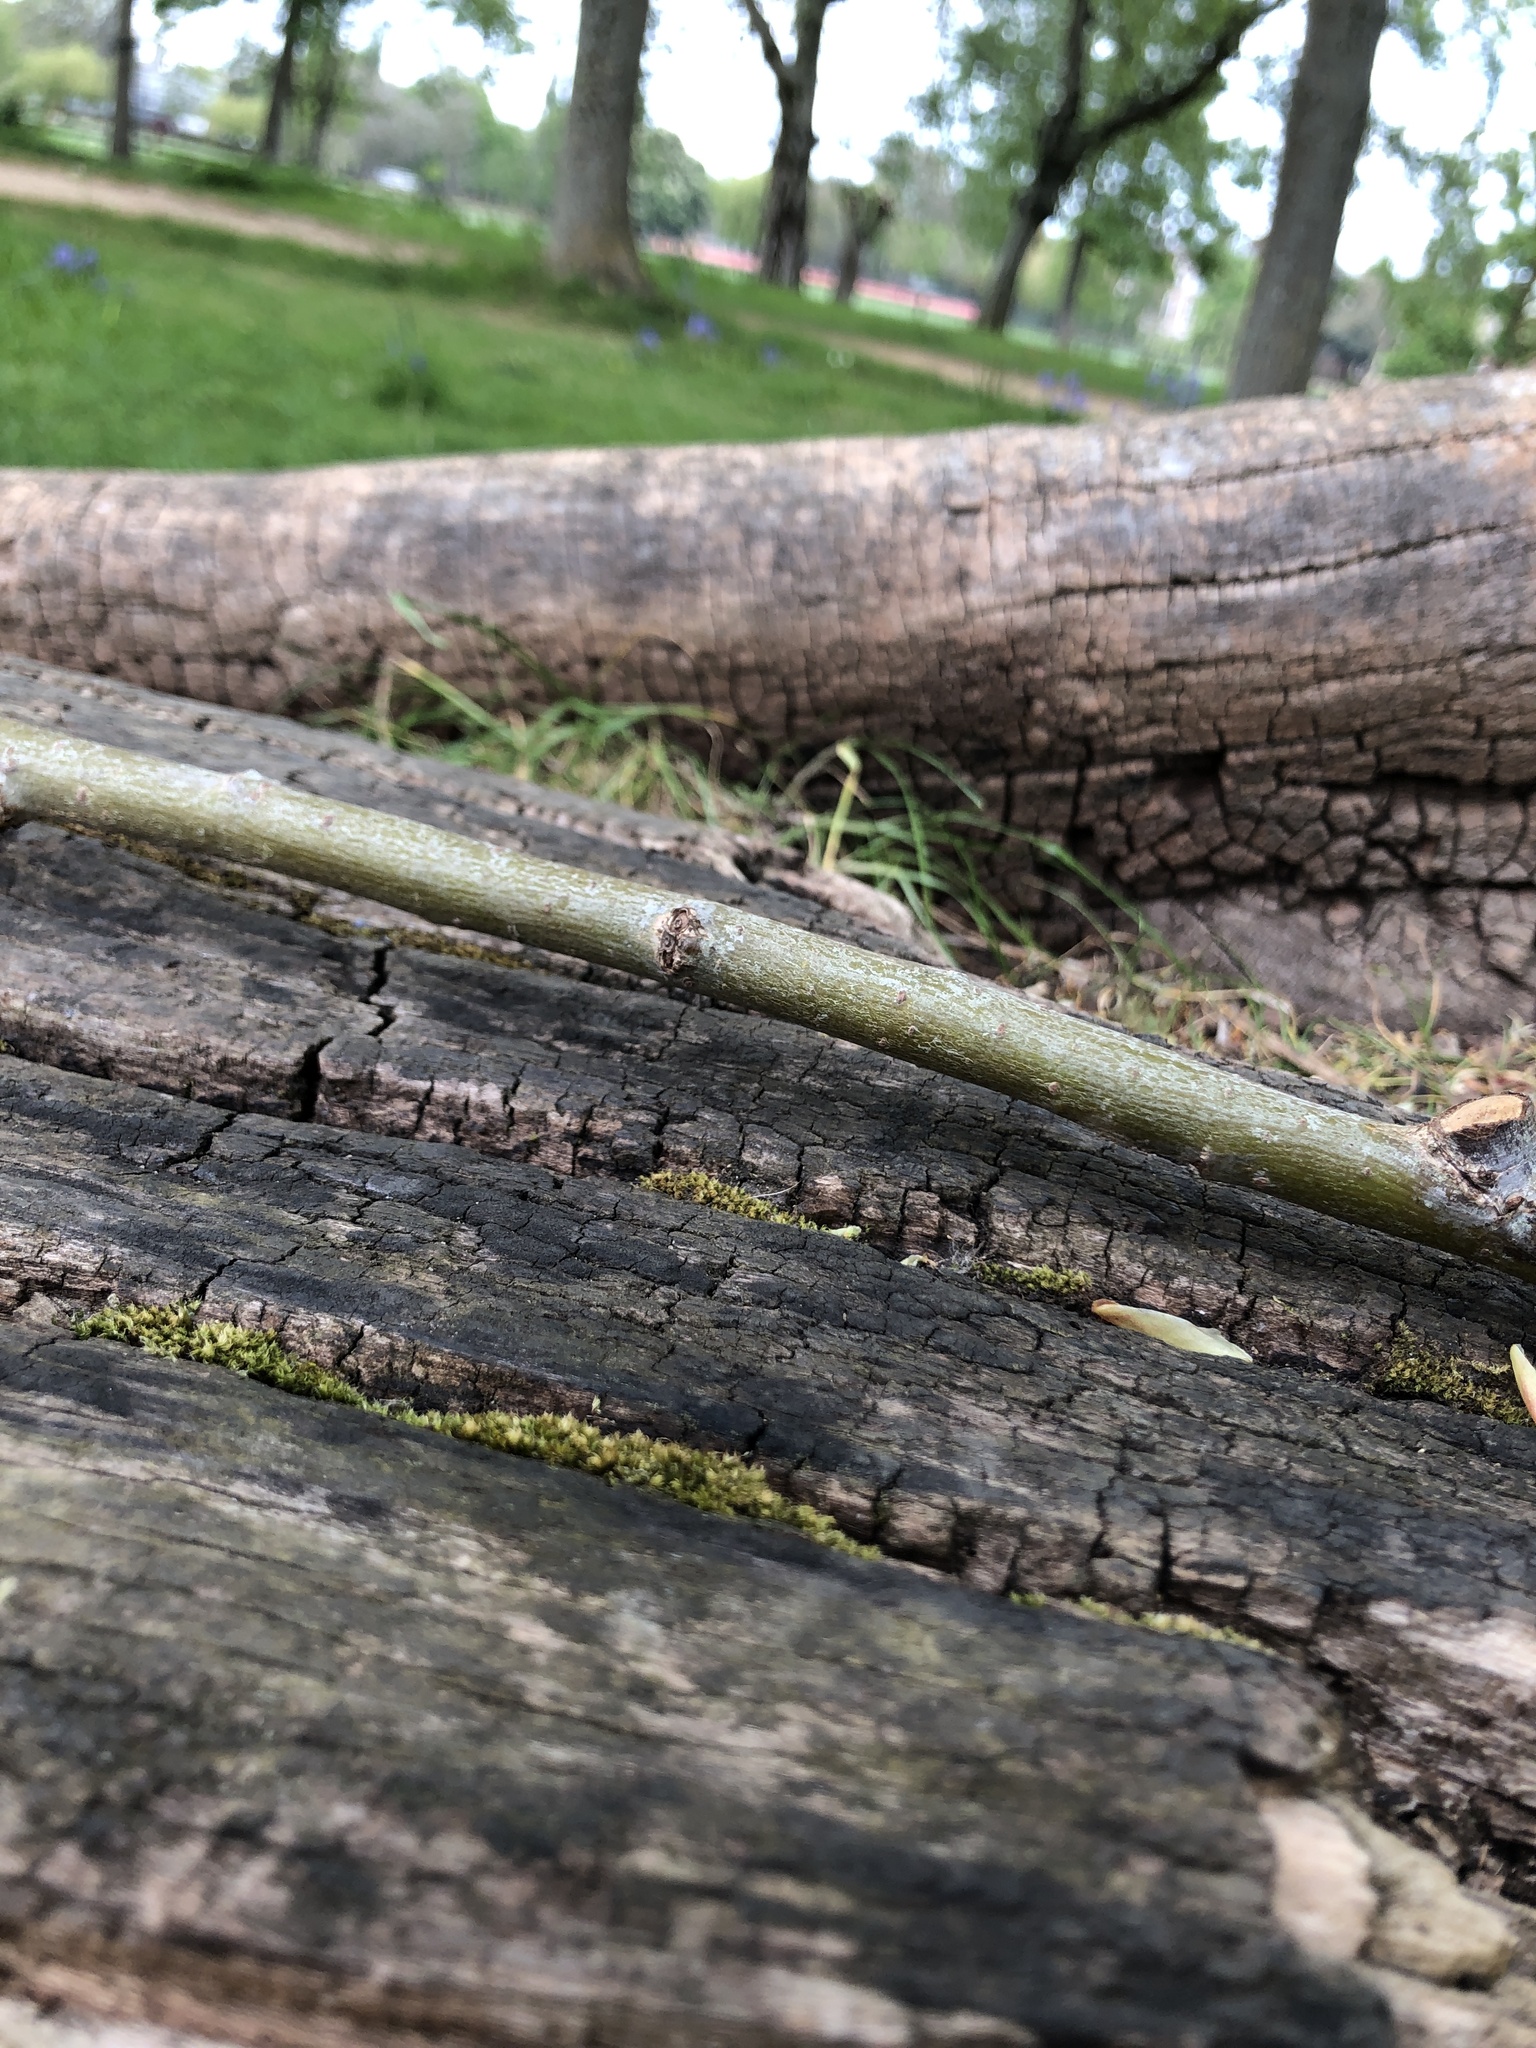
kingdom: Plantae
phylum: Bryophyta
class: Bryopsida
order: Pottiales
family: Pottiaceae
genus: Syntrichia
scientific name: Syntrichia latifolia
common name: Water screw-moss
